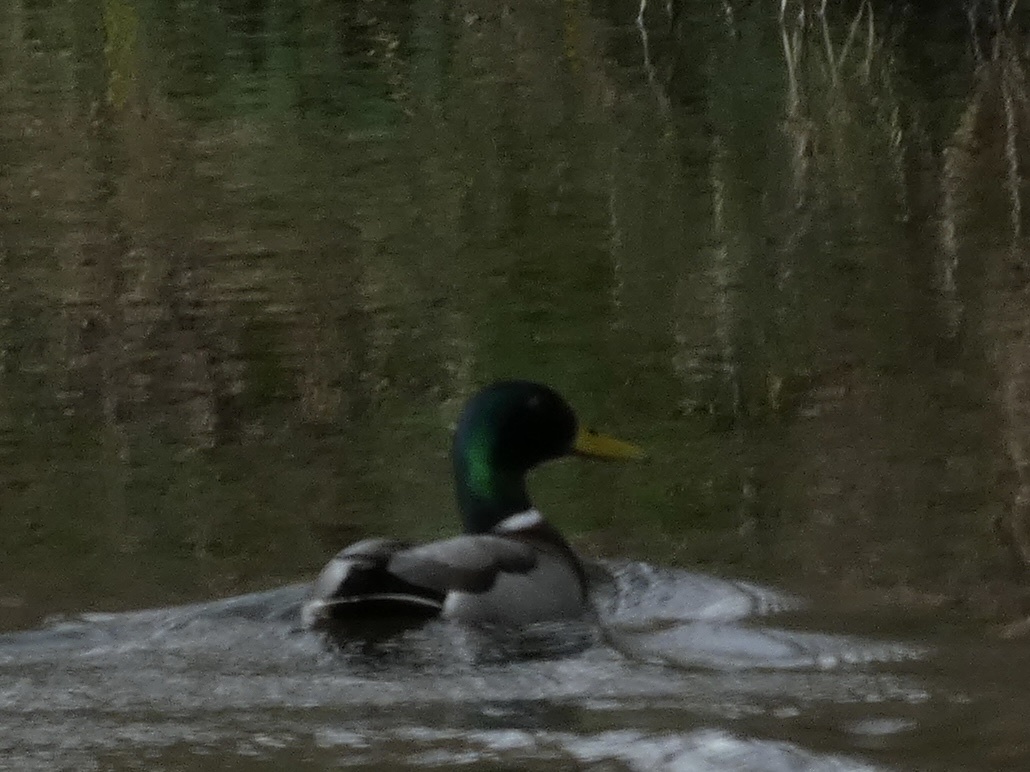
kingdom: Animalia
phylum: Chordata
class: Aves
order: Anseriformes
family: Anatidae
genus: Anas
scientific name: Anas platyrhynchos
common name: Mallard
